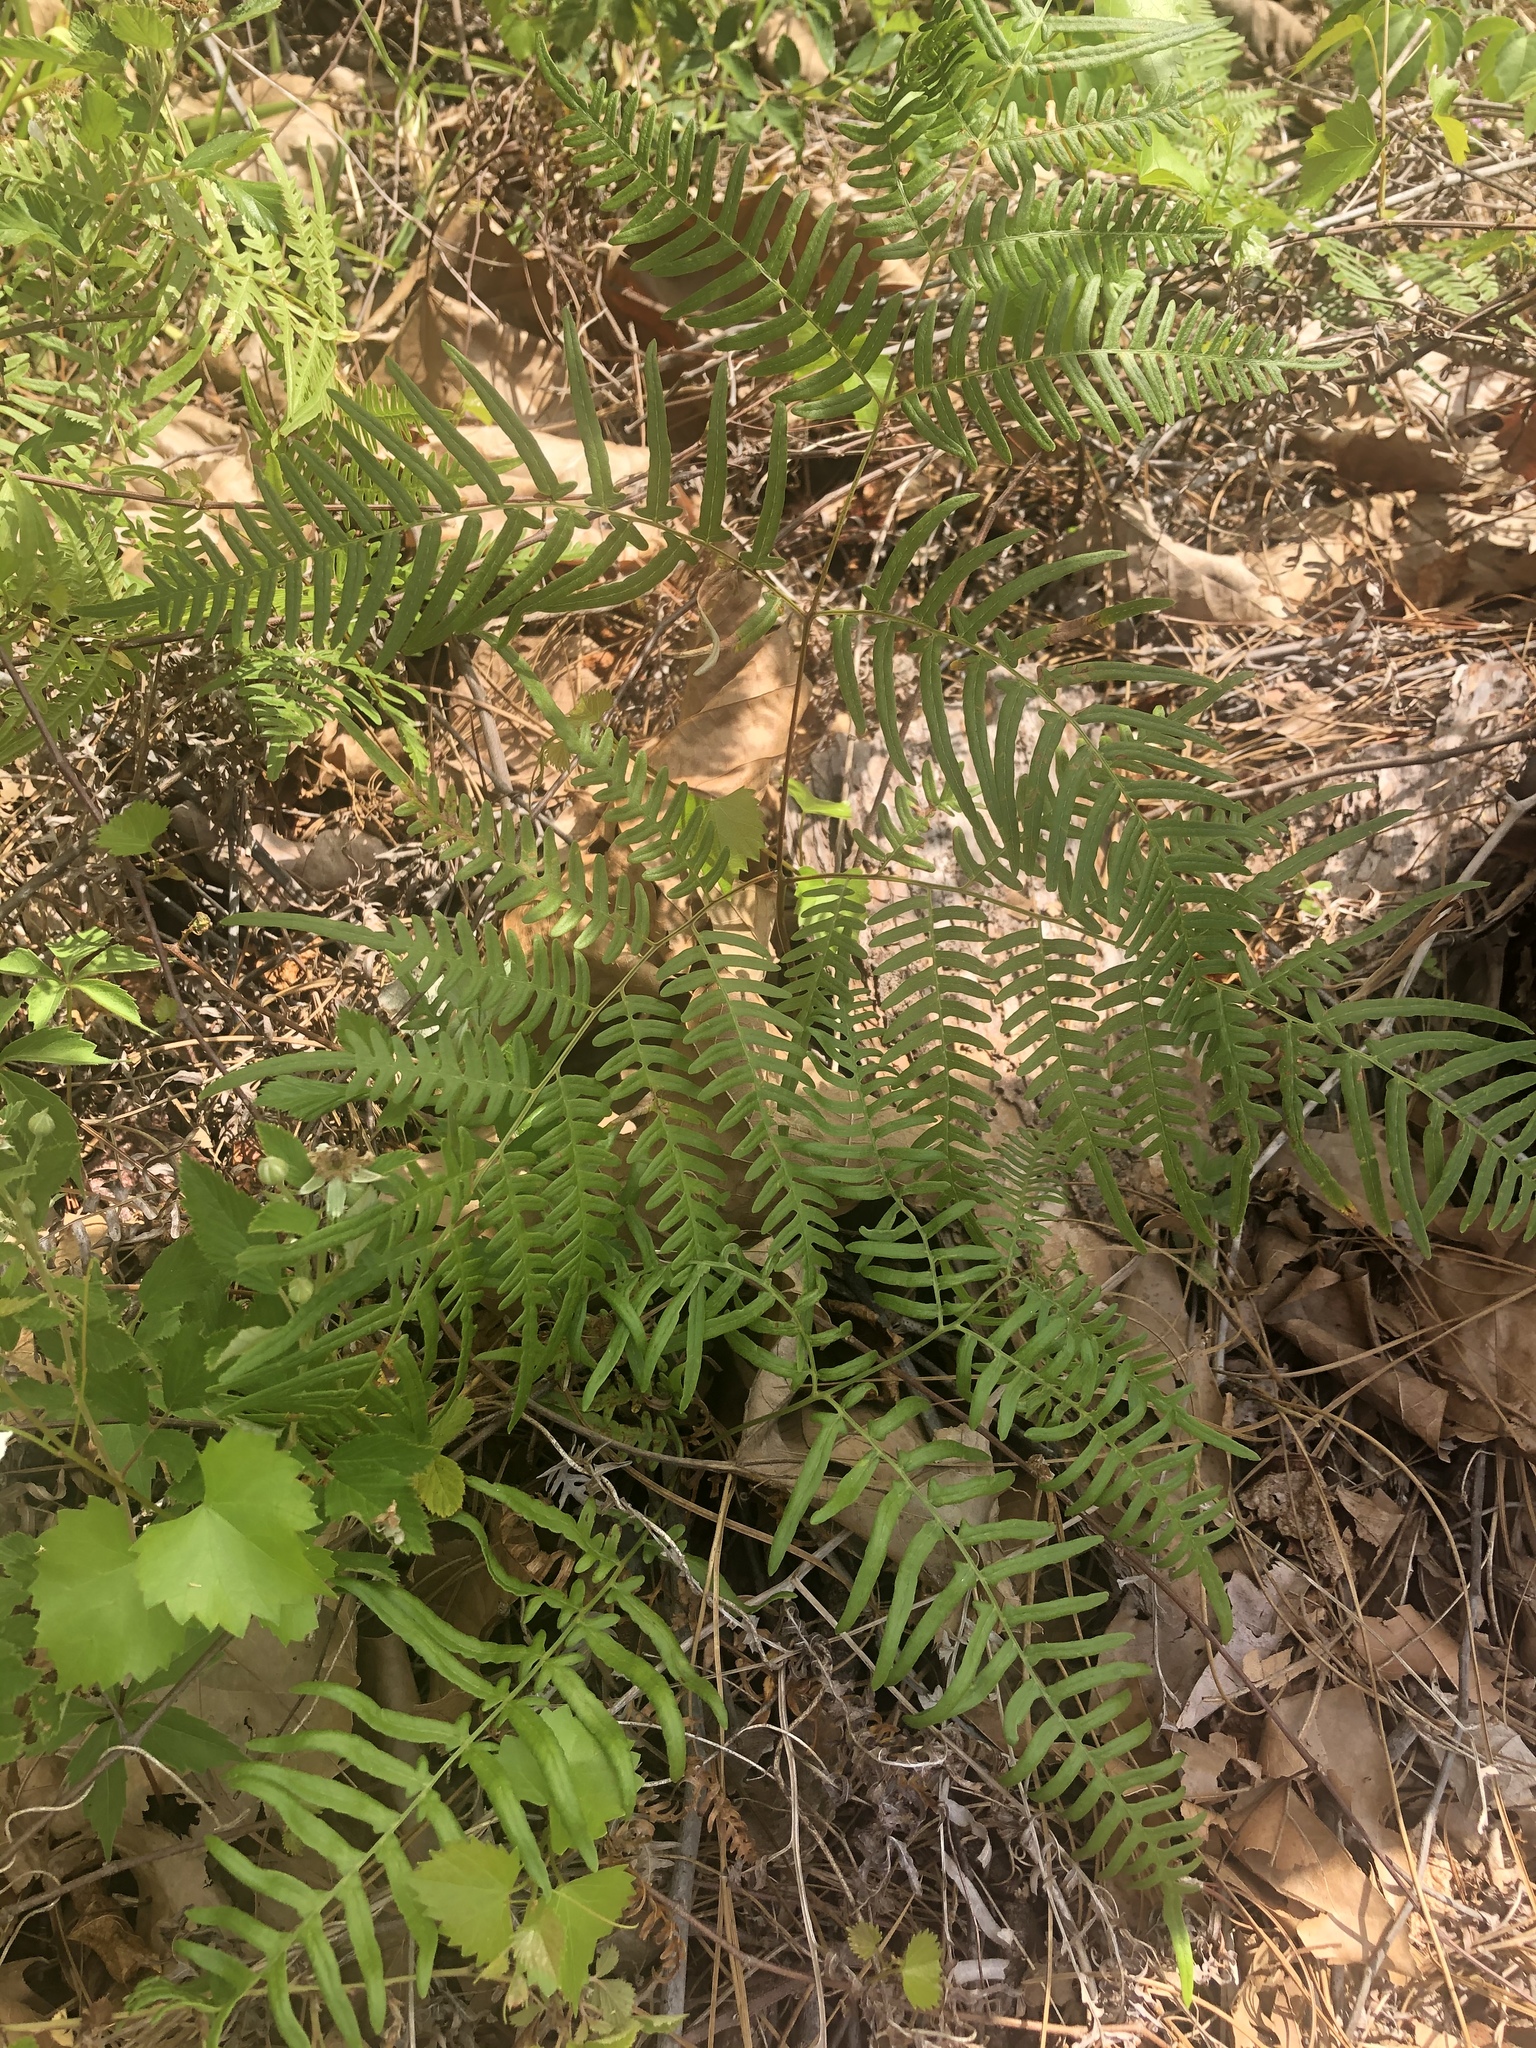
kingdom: Plantae
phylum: Tracheophyta
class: Polypodiopsida
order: Polypodiales
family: Dennstaedtiaceae
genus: Pteridium
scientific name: Pteridium
